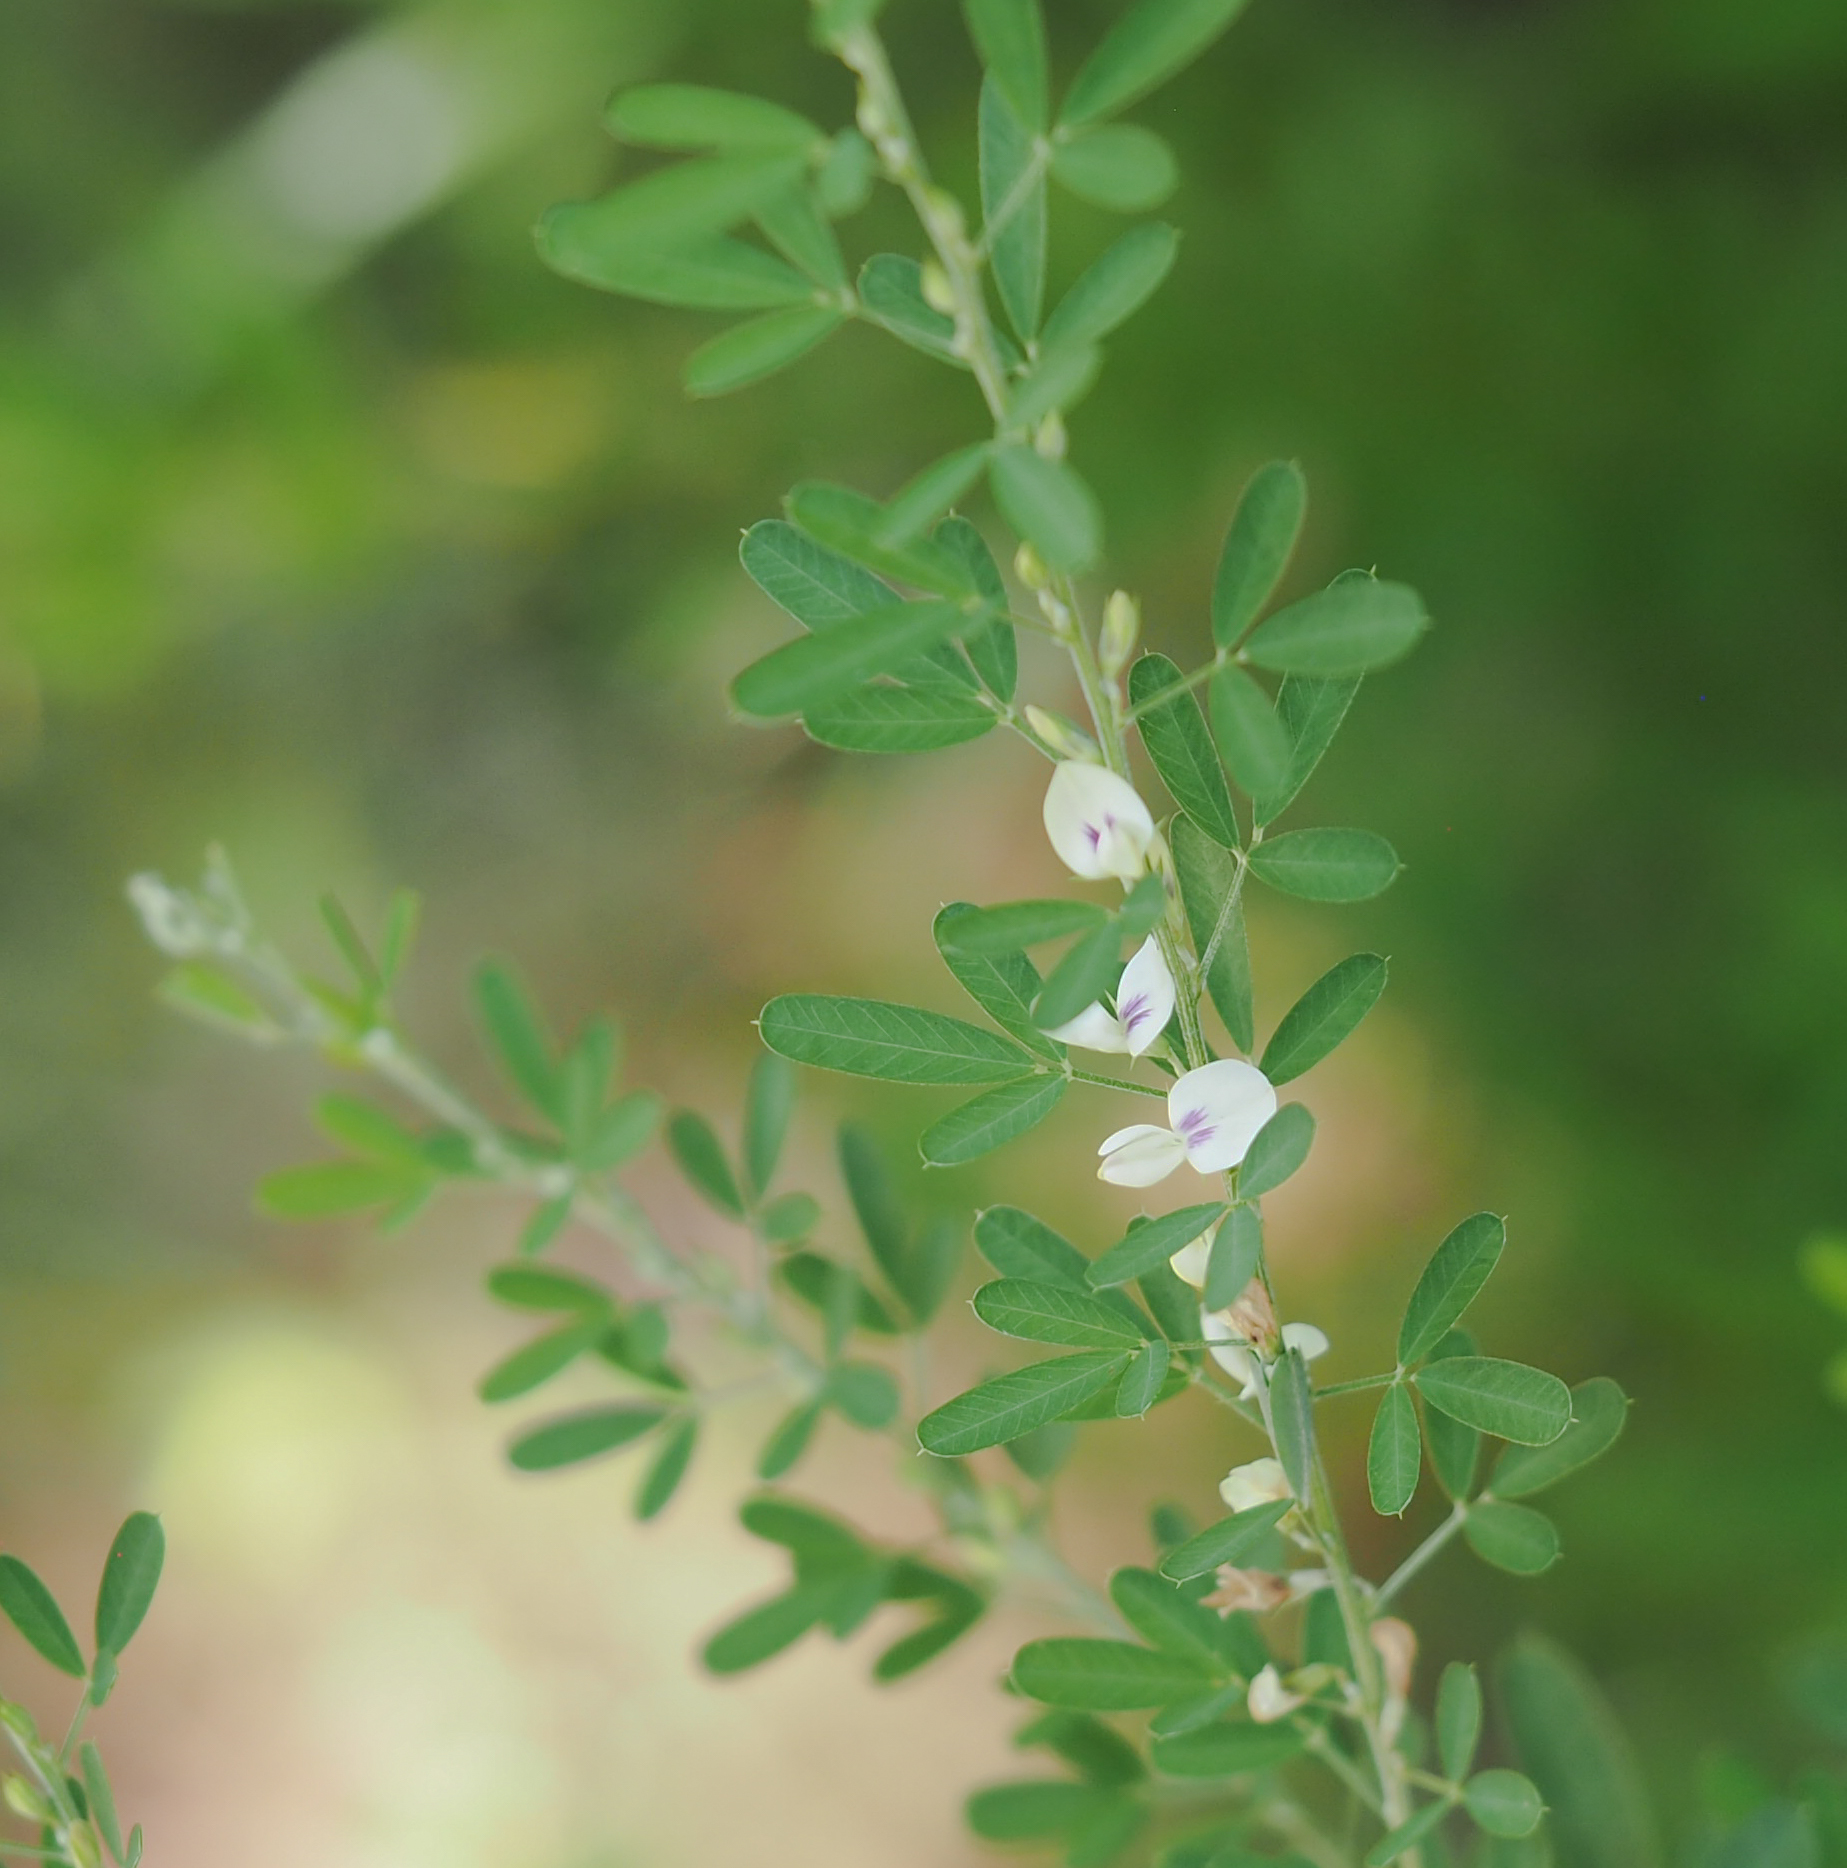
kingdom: Plantae
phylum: Tracheophyta
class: Magnoliopsida
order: Fabales
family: Fabaceae
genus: Lespedeza
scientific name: Lespedeza cuneata
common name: Chinese bush-clover
